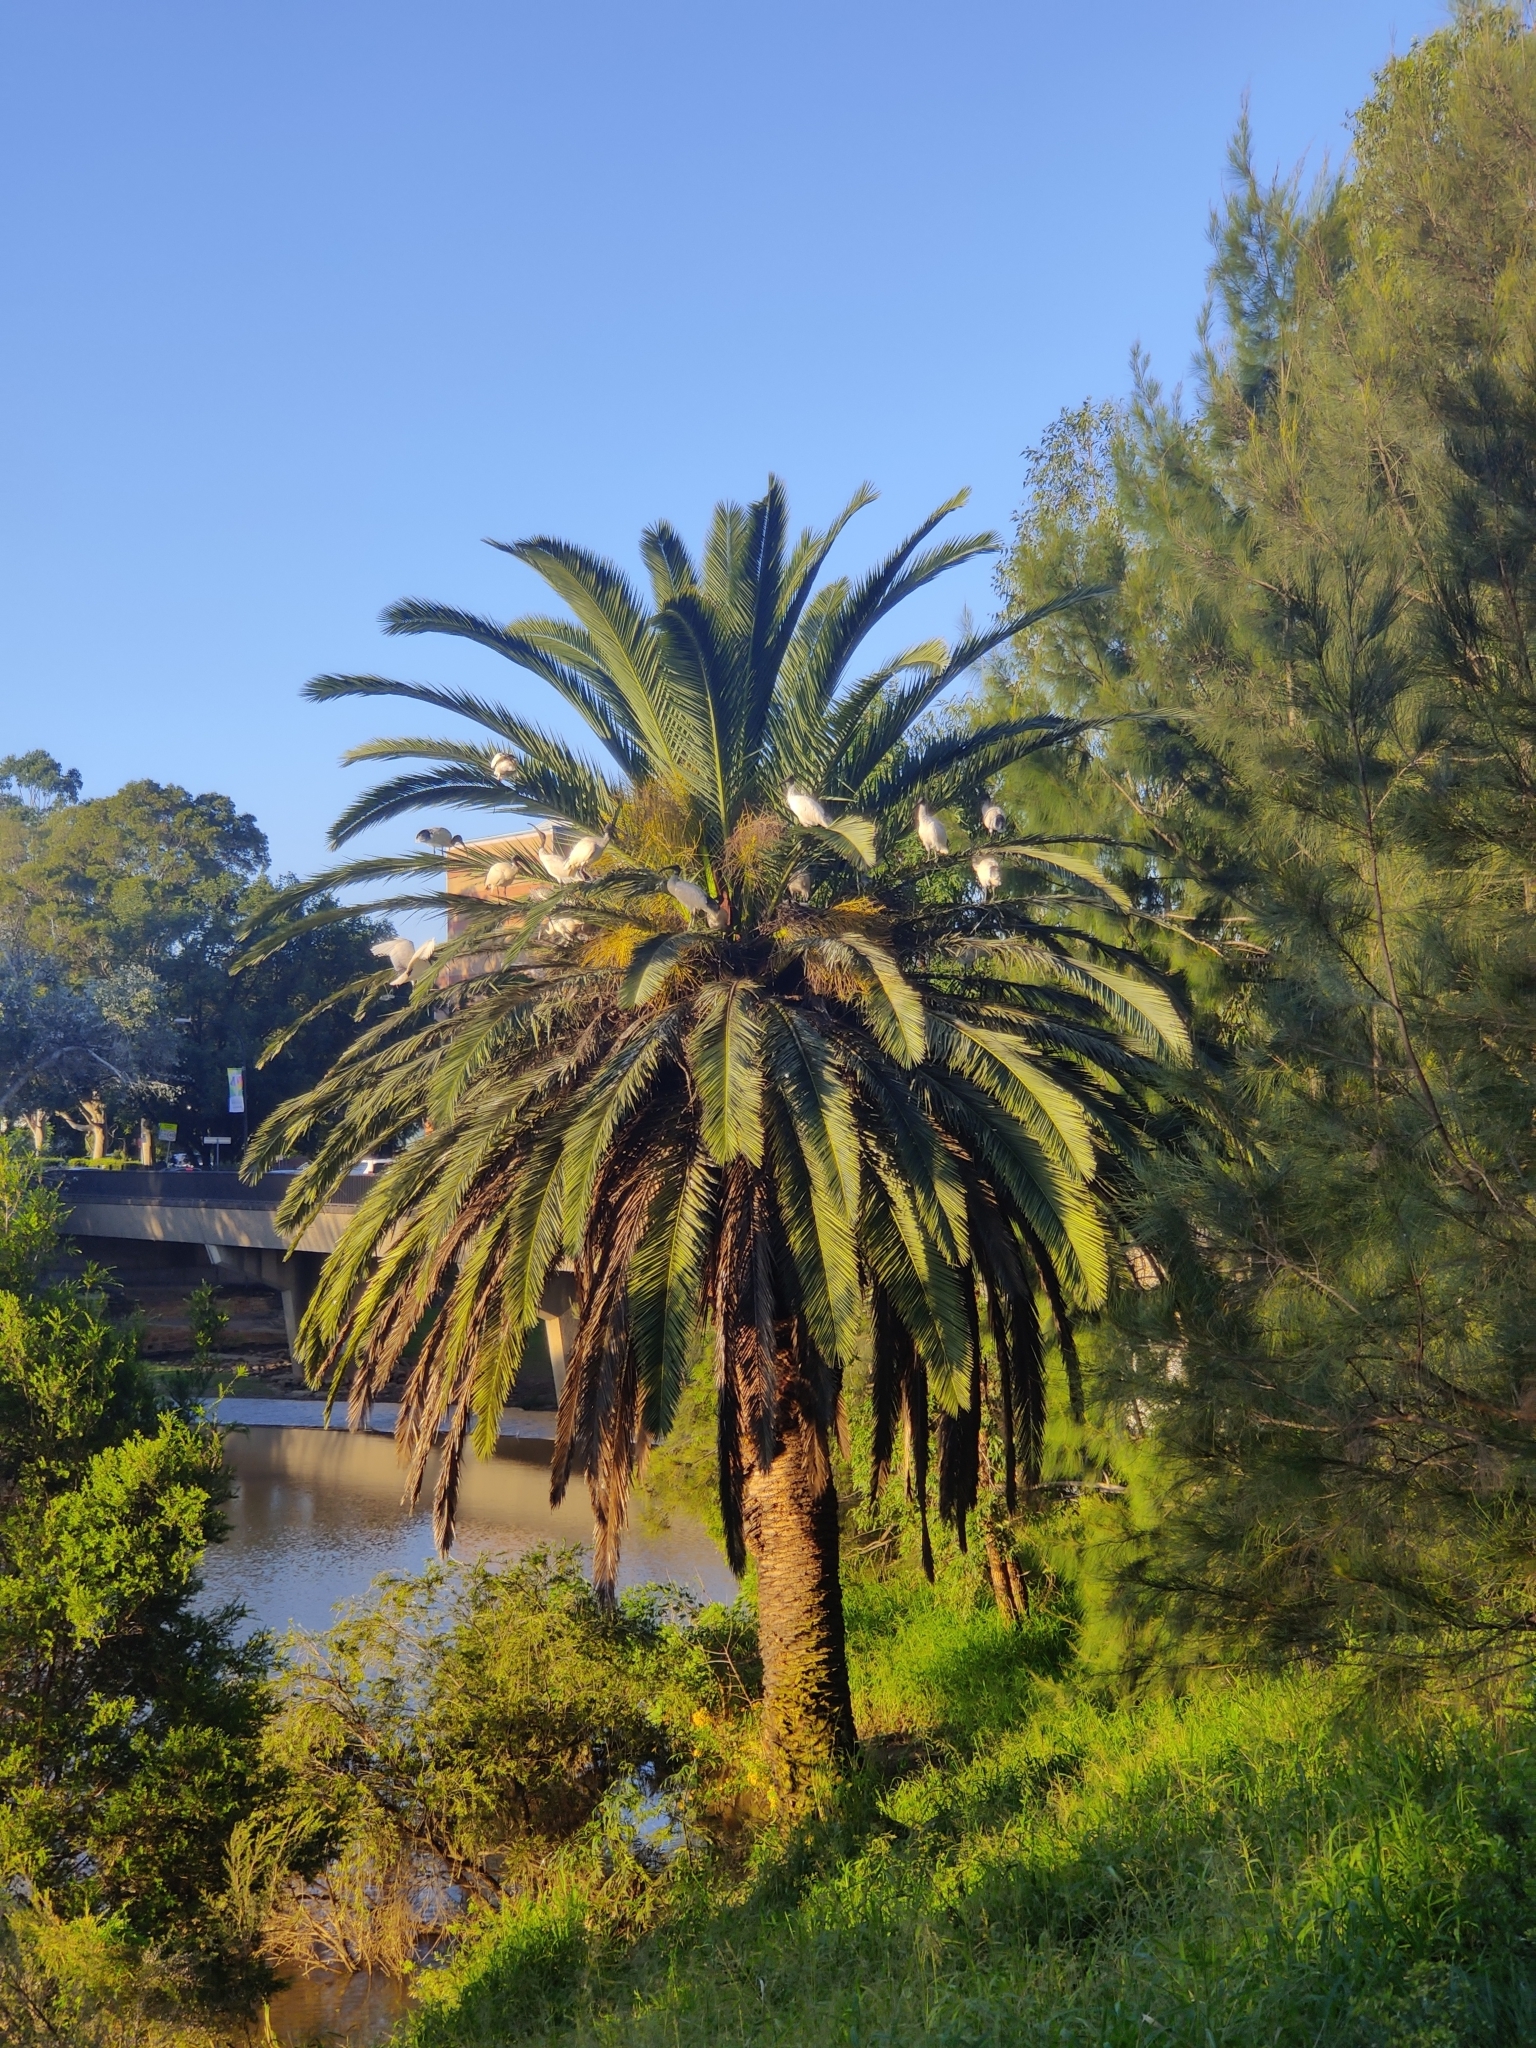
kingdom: Animalia
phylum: Chordata
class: Aves
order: Pelecaniformes
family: Threskiornithidae
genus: Threskiornis
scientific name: Threskiornis molucca
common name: Australian white ibis
